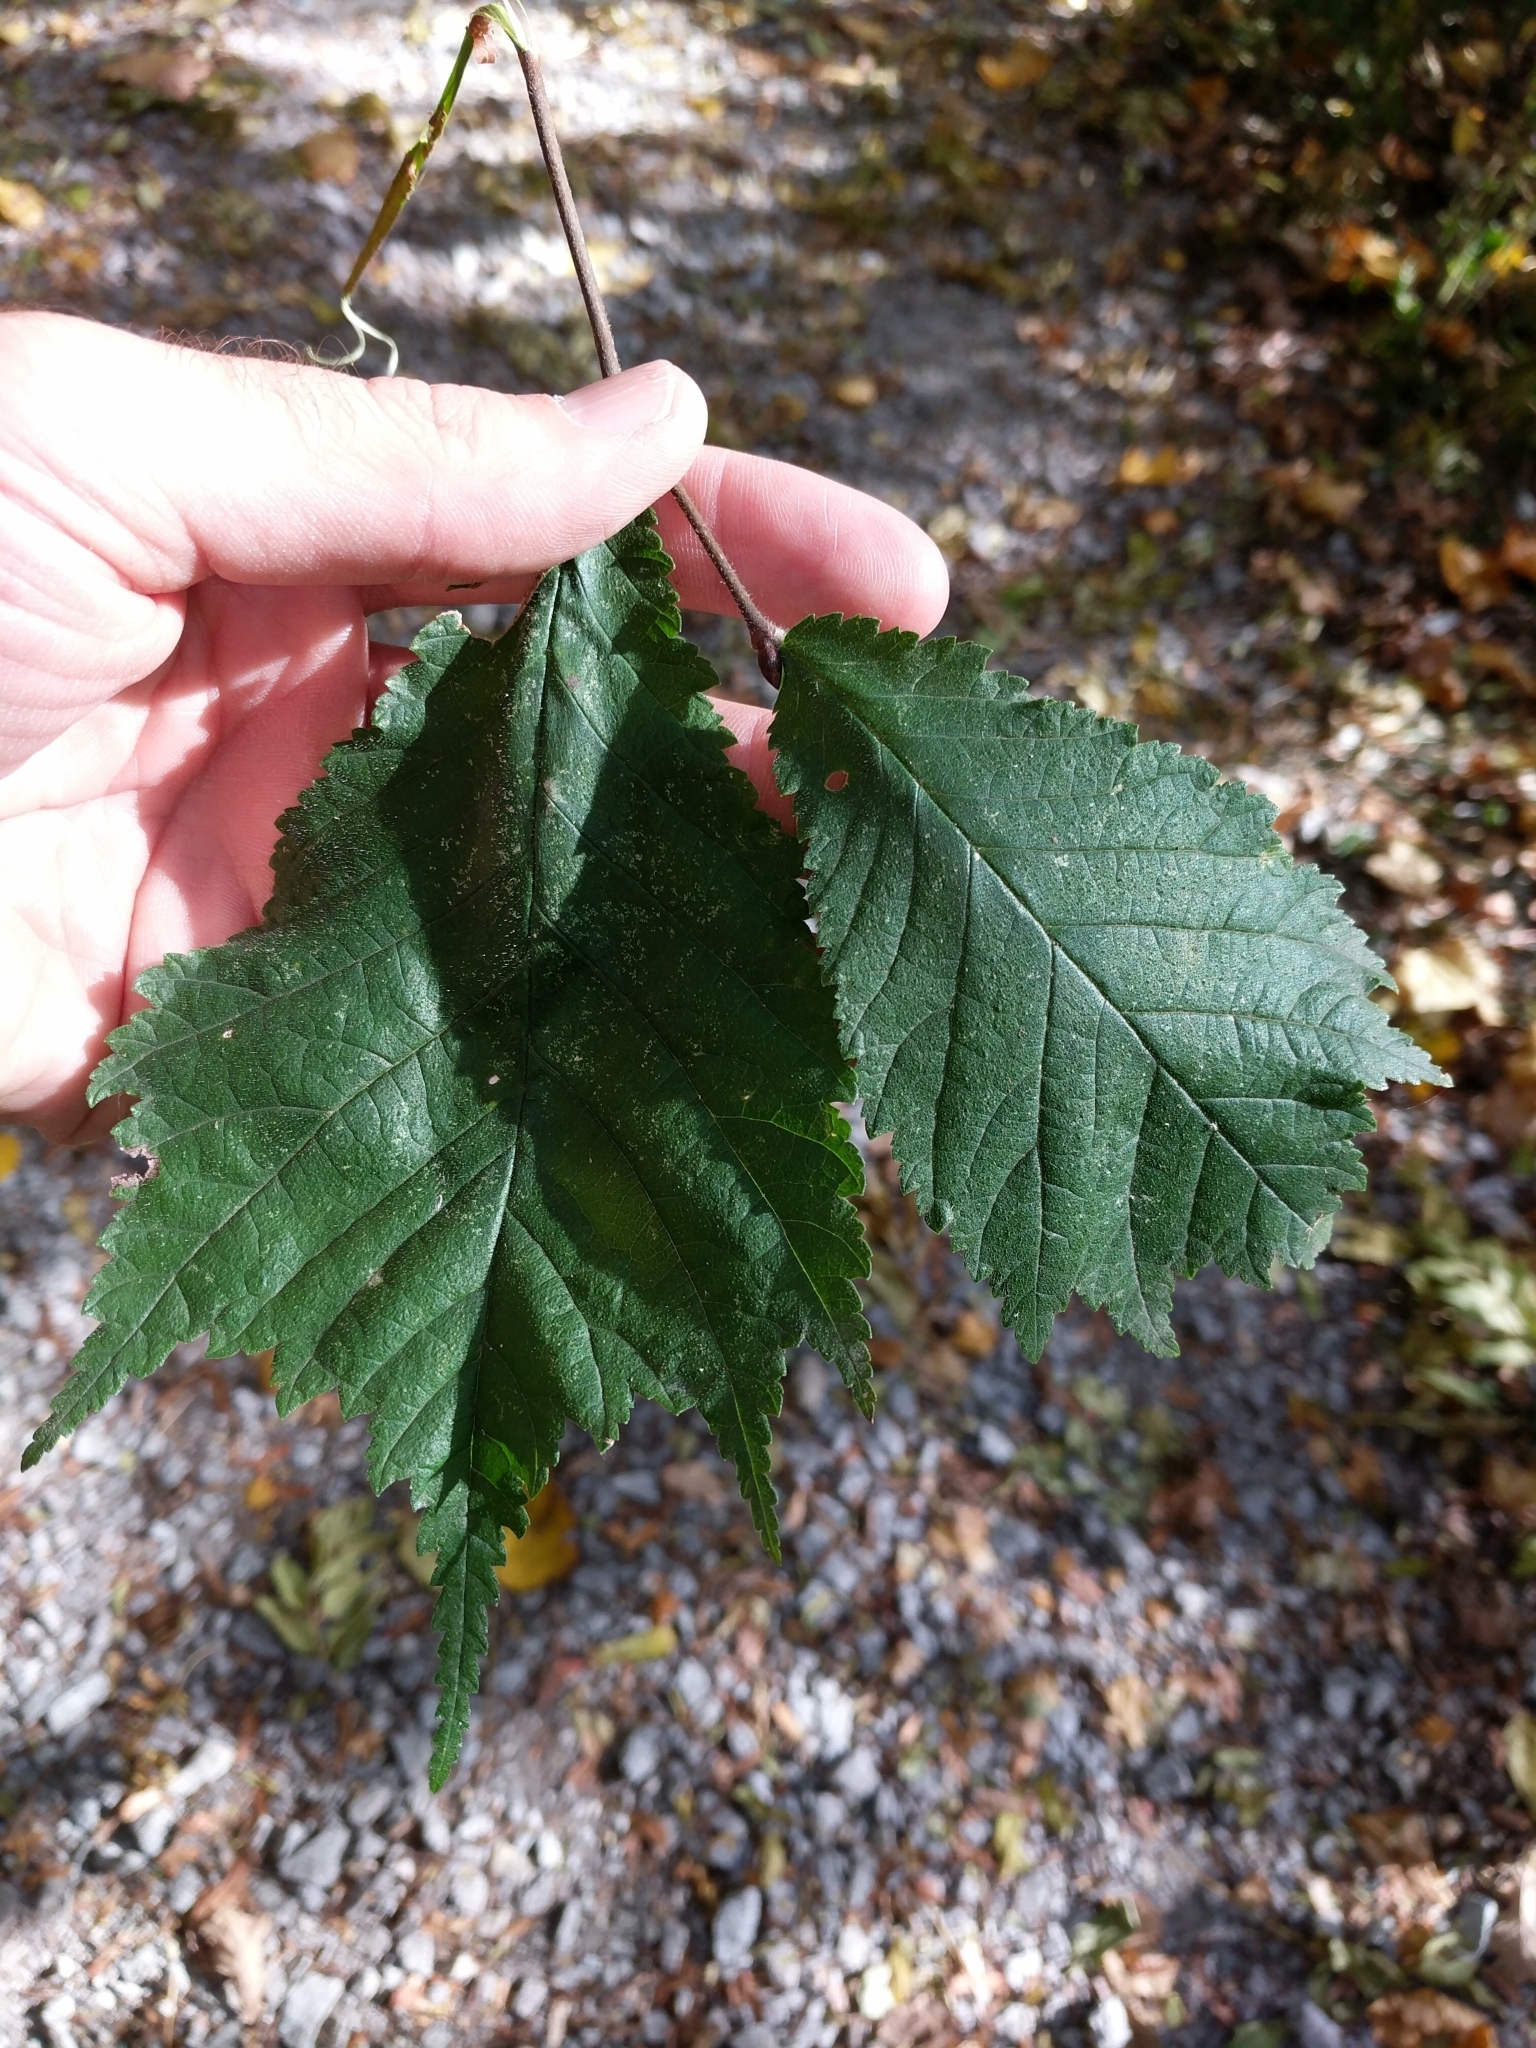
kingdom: Plantae
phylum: Tracheophyta
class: Magnoliopsida
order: Rosales
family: Ulmaceae
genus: Ulmus
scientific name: Ulmus glabra
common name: Wych elm
